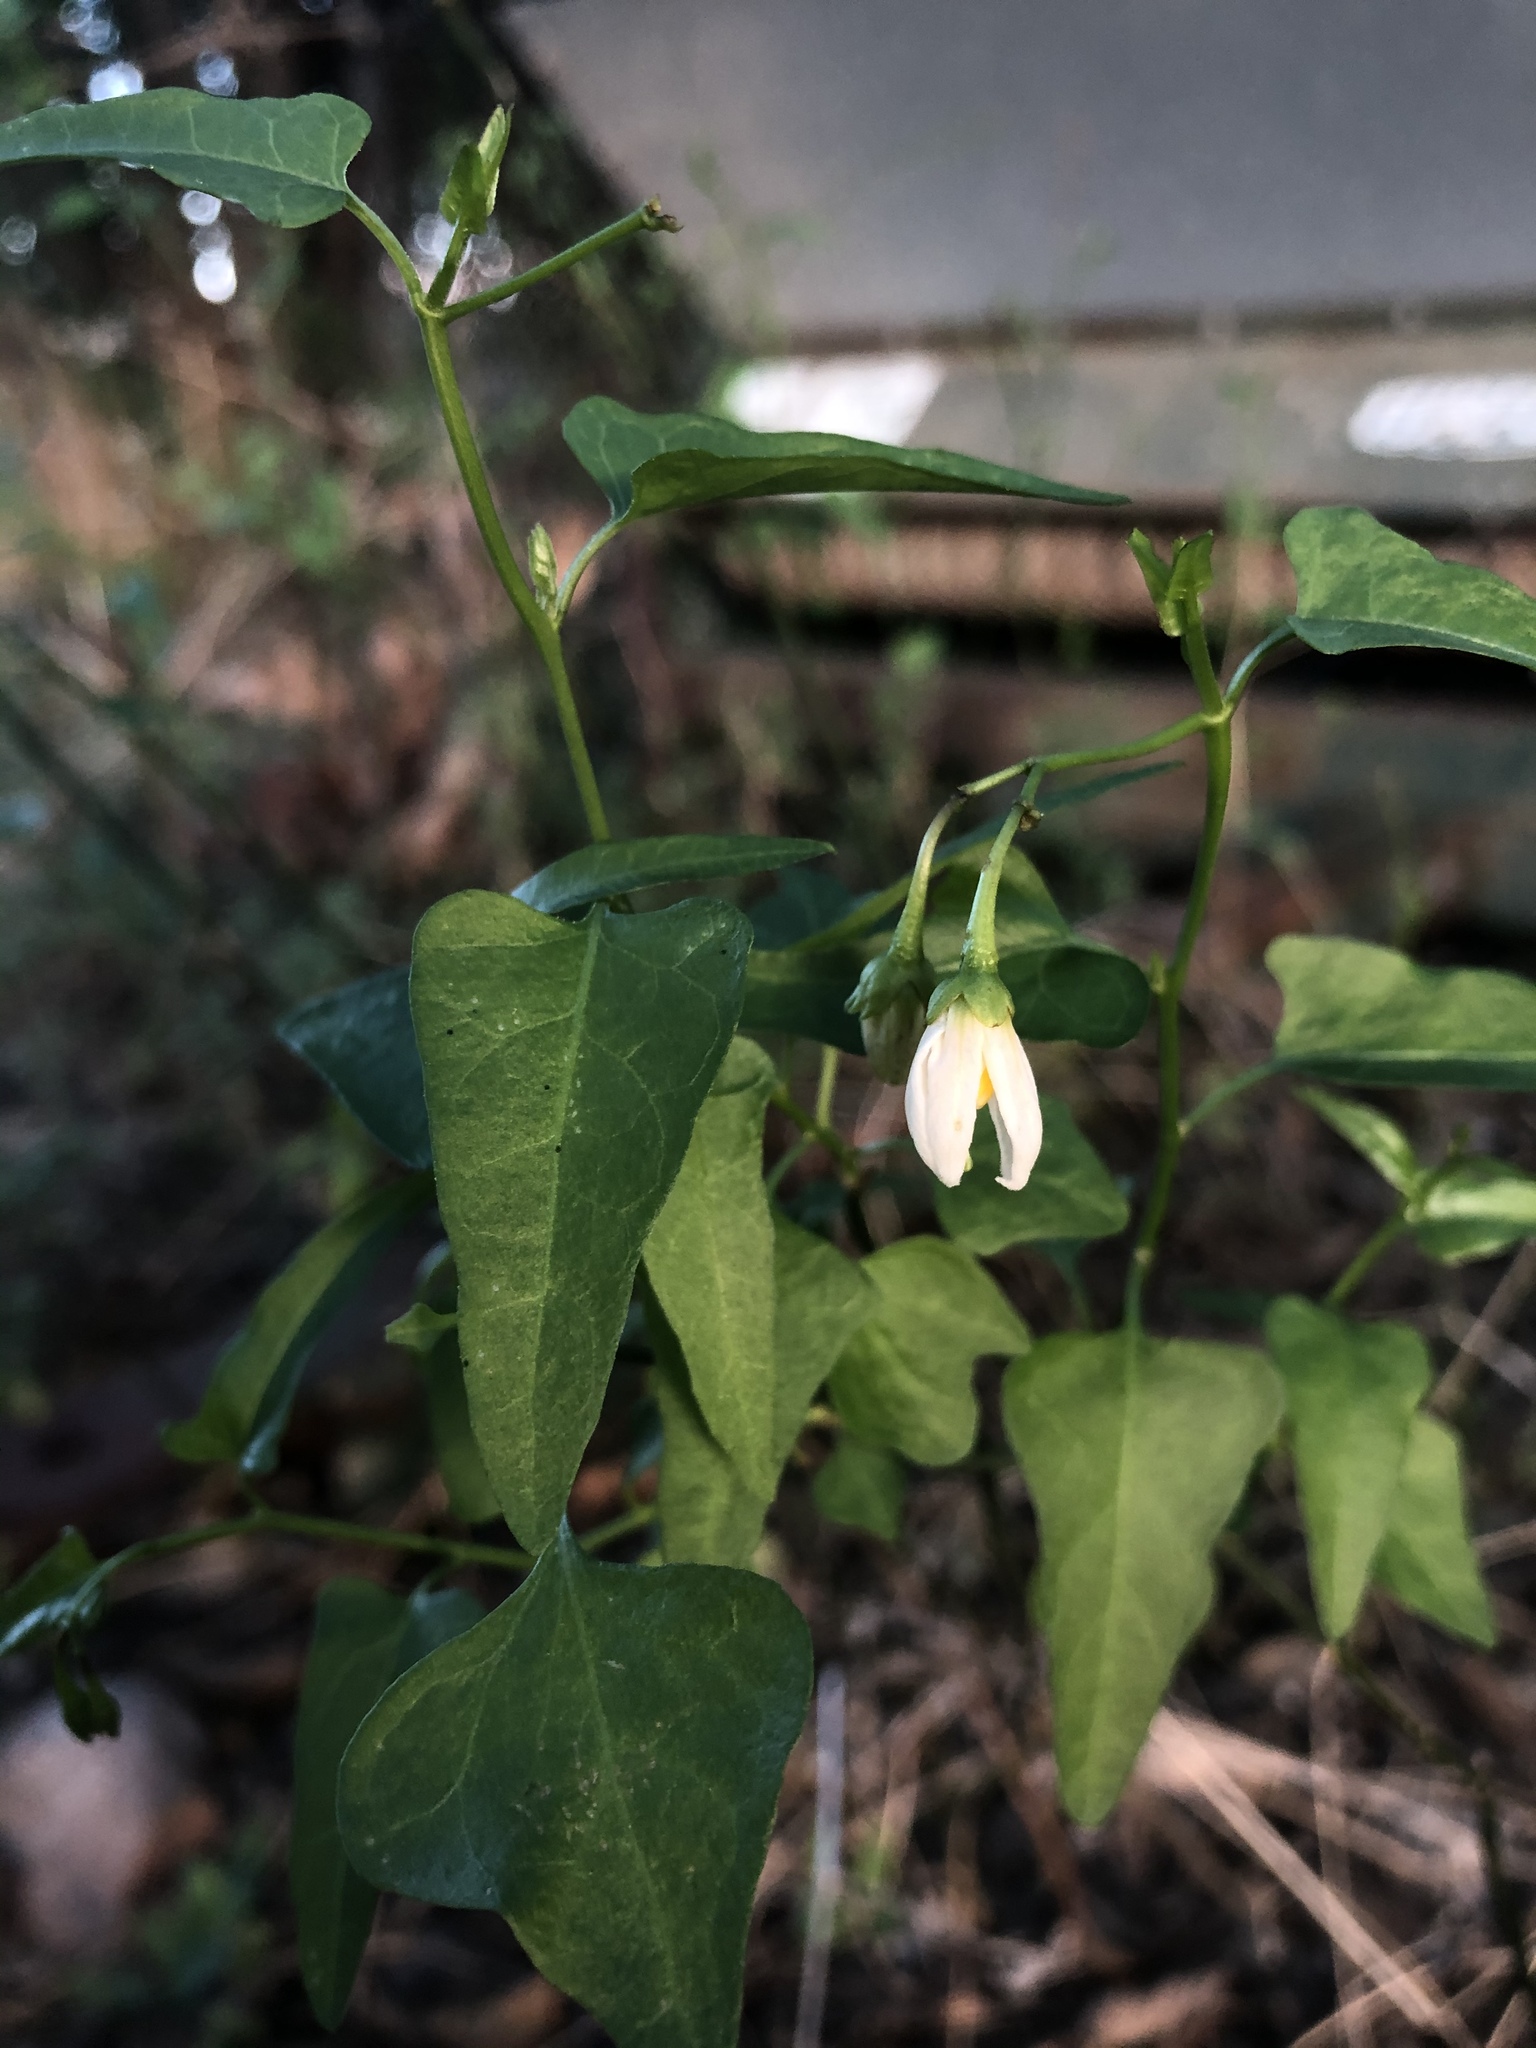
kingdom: Plantae
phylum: Tracheophyta
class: Magnoliopsida
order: Solanales
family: Solanaceae
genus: Solanum
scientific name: Solanum triquetrum
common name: Texas nightshade
